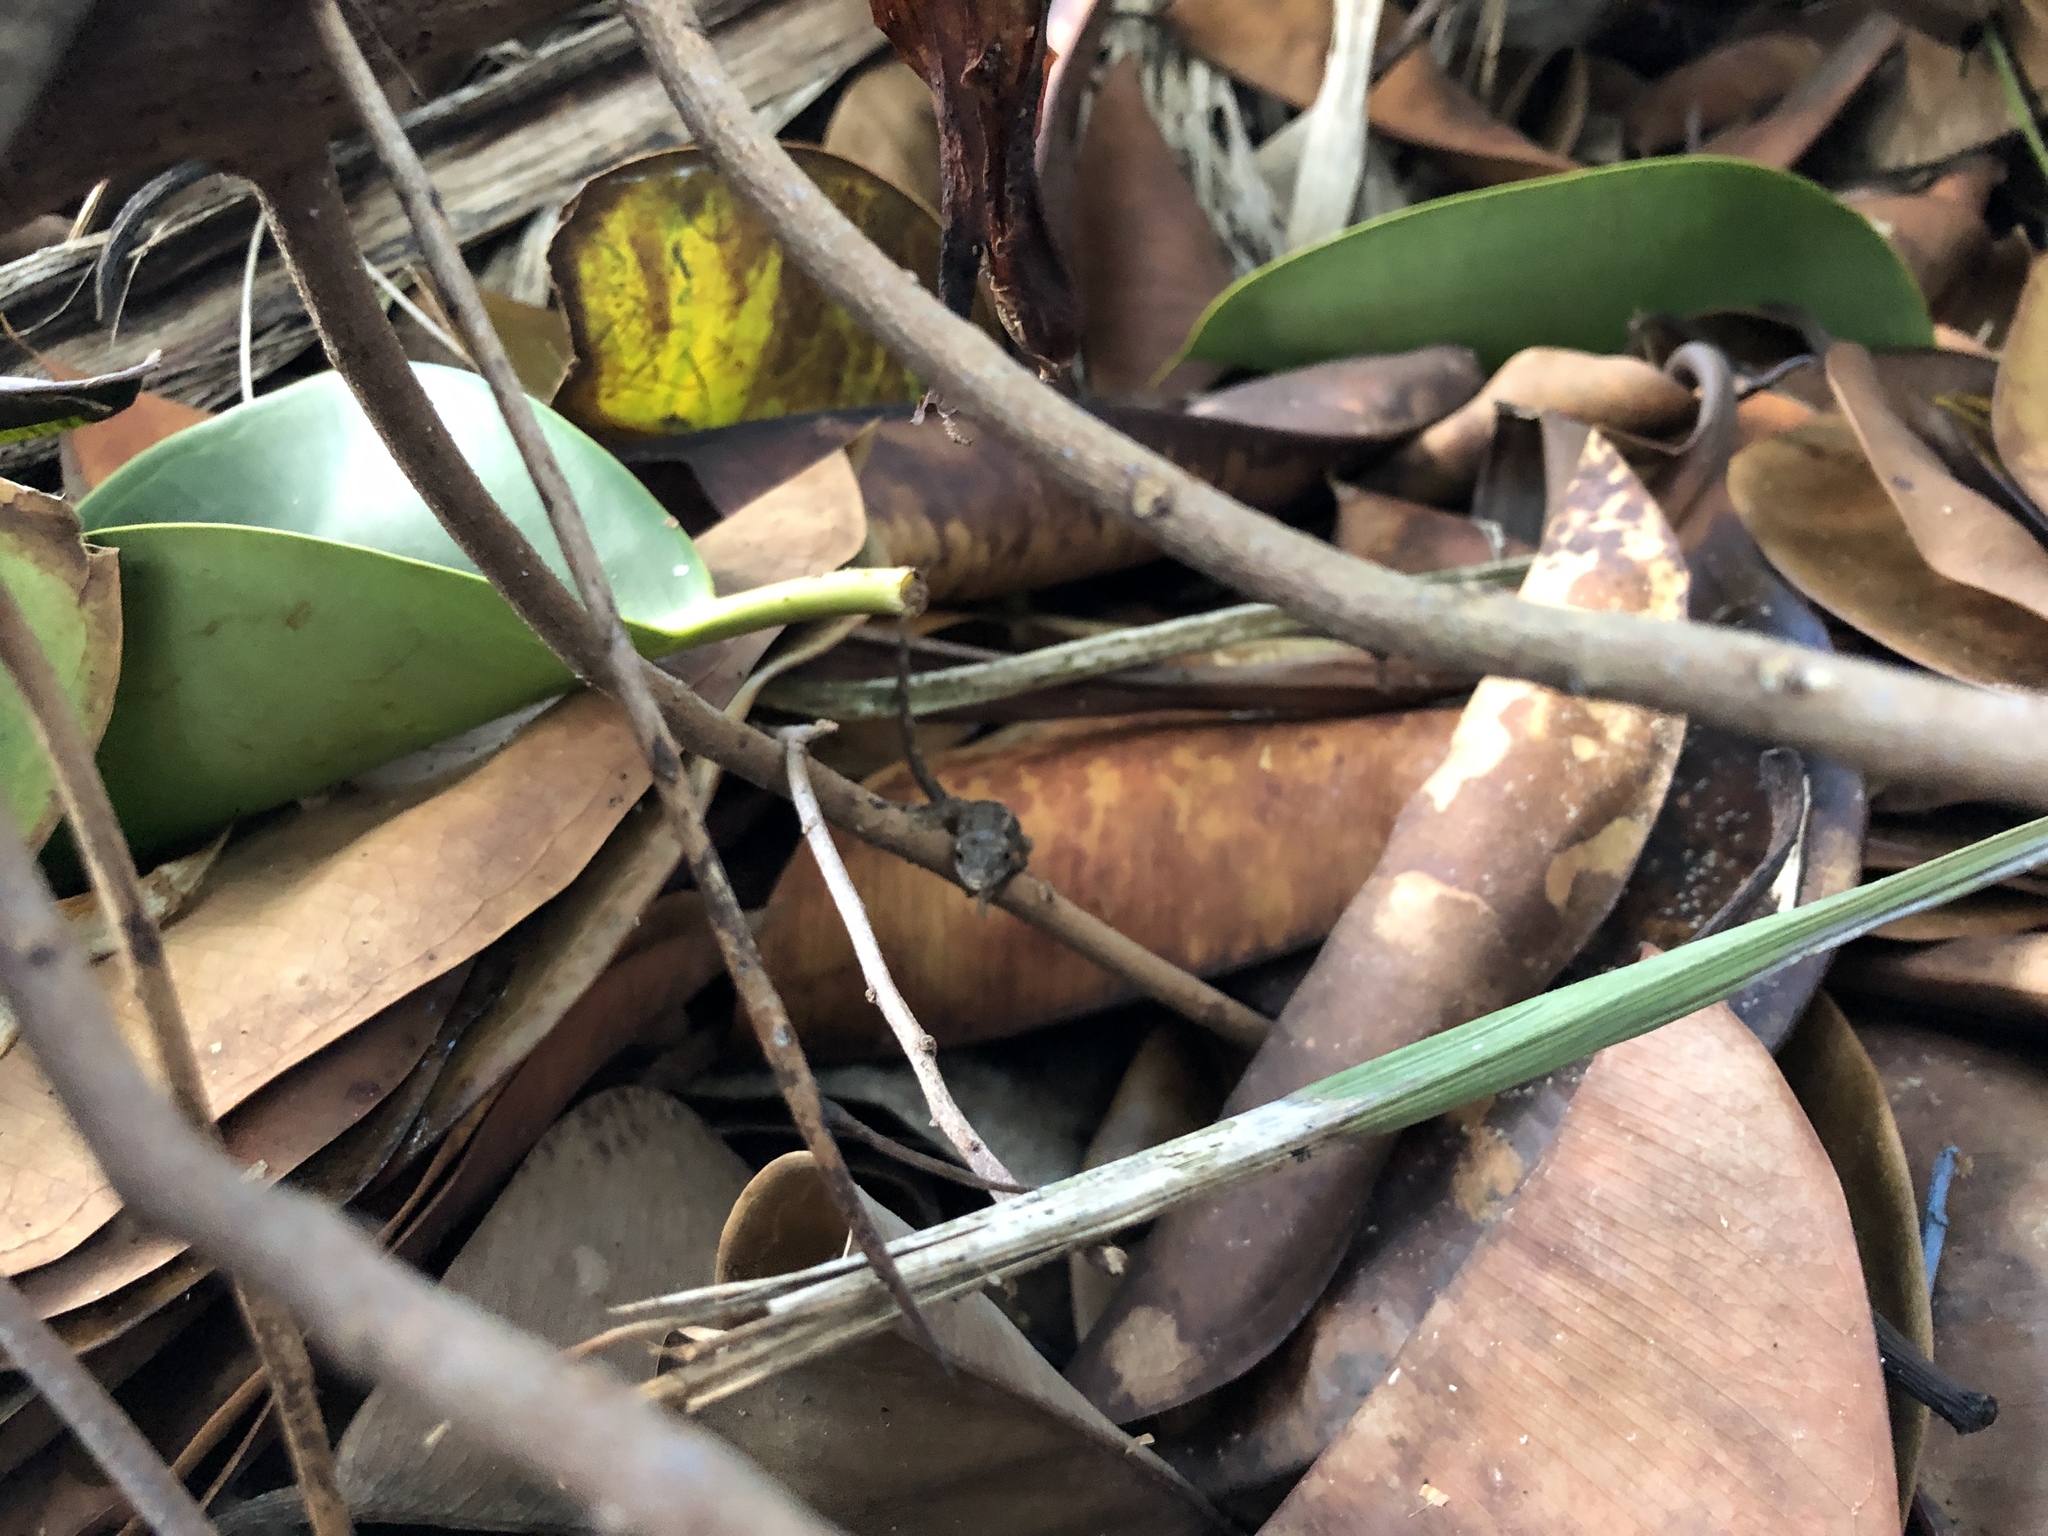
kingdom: Animalia
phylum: Chordata
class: Squamata
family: Dactyloidae
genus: Anolis
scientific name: Anolis sagrei
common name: Brown anole
